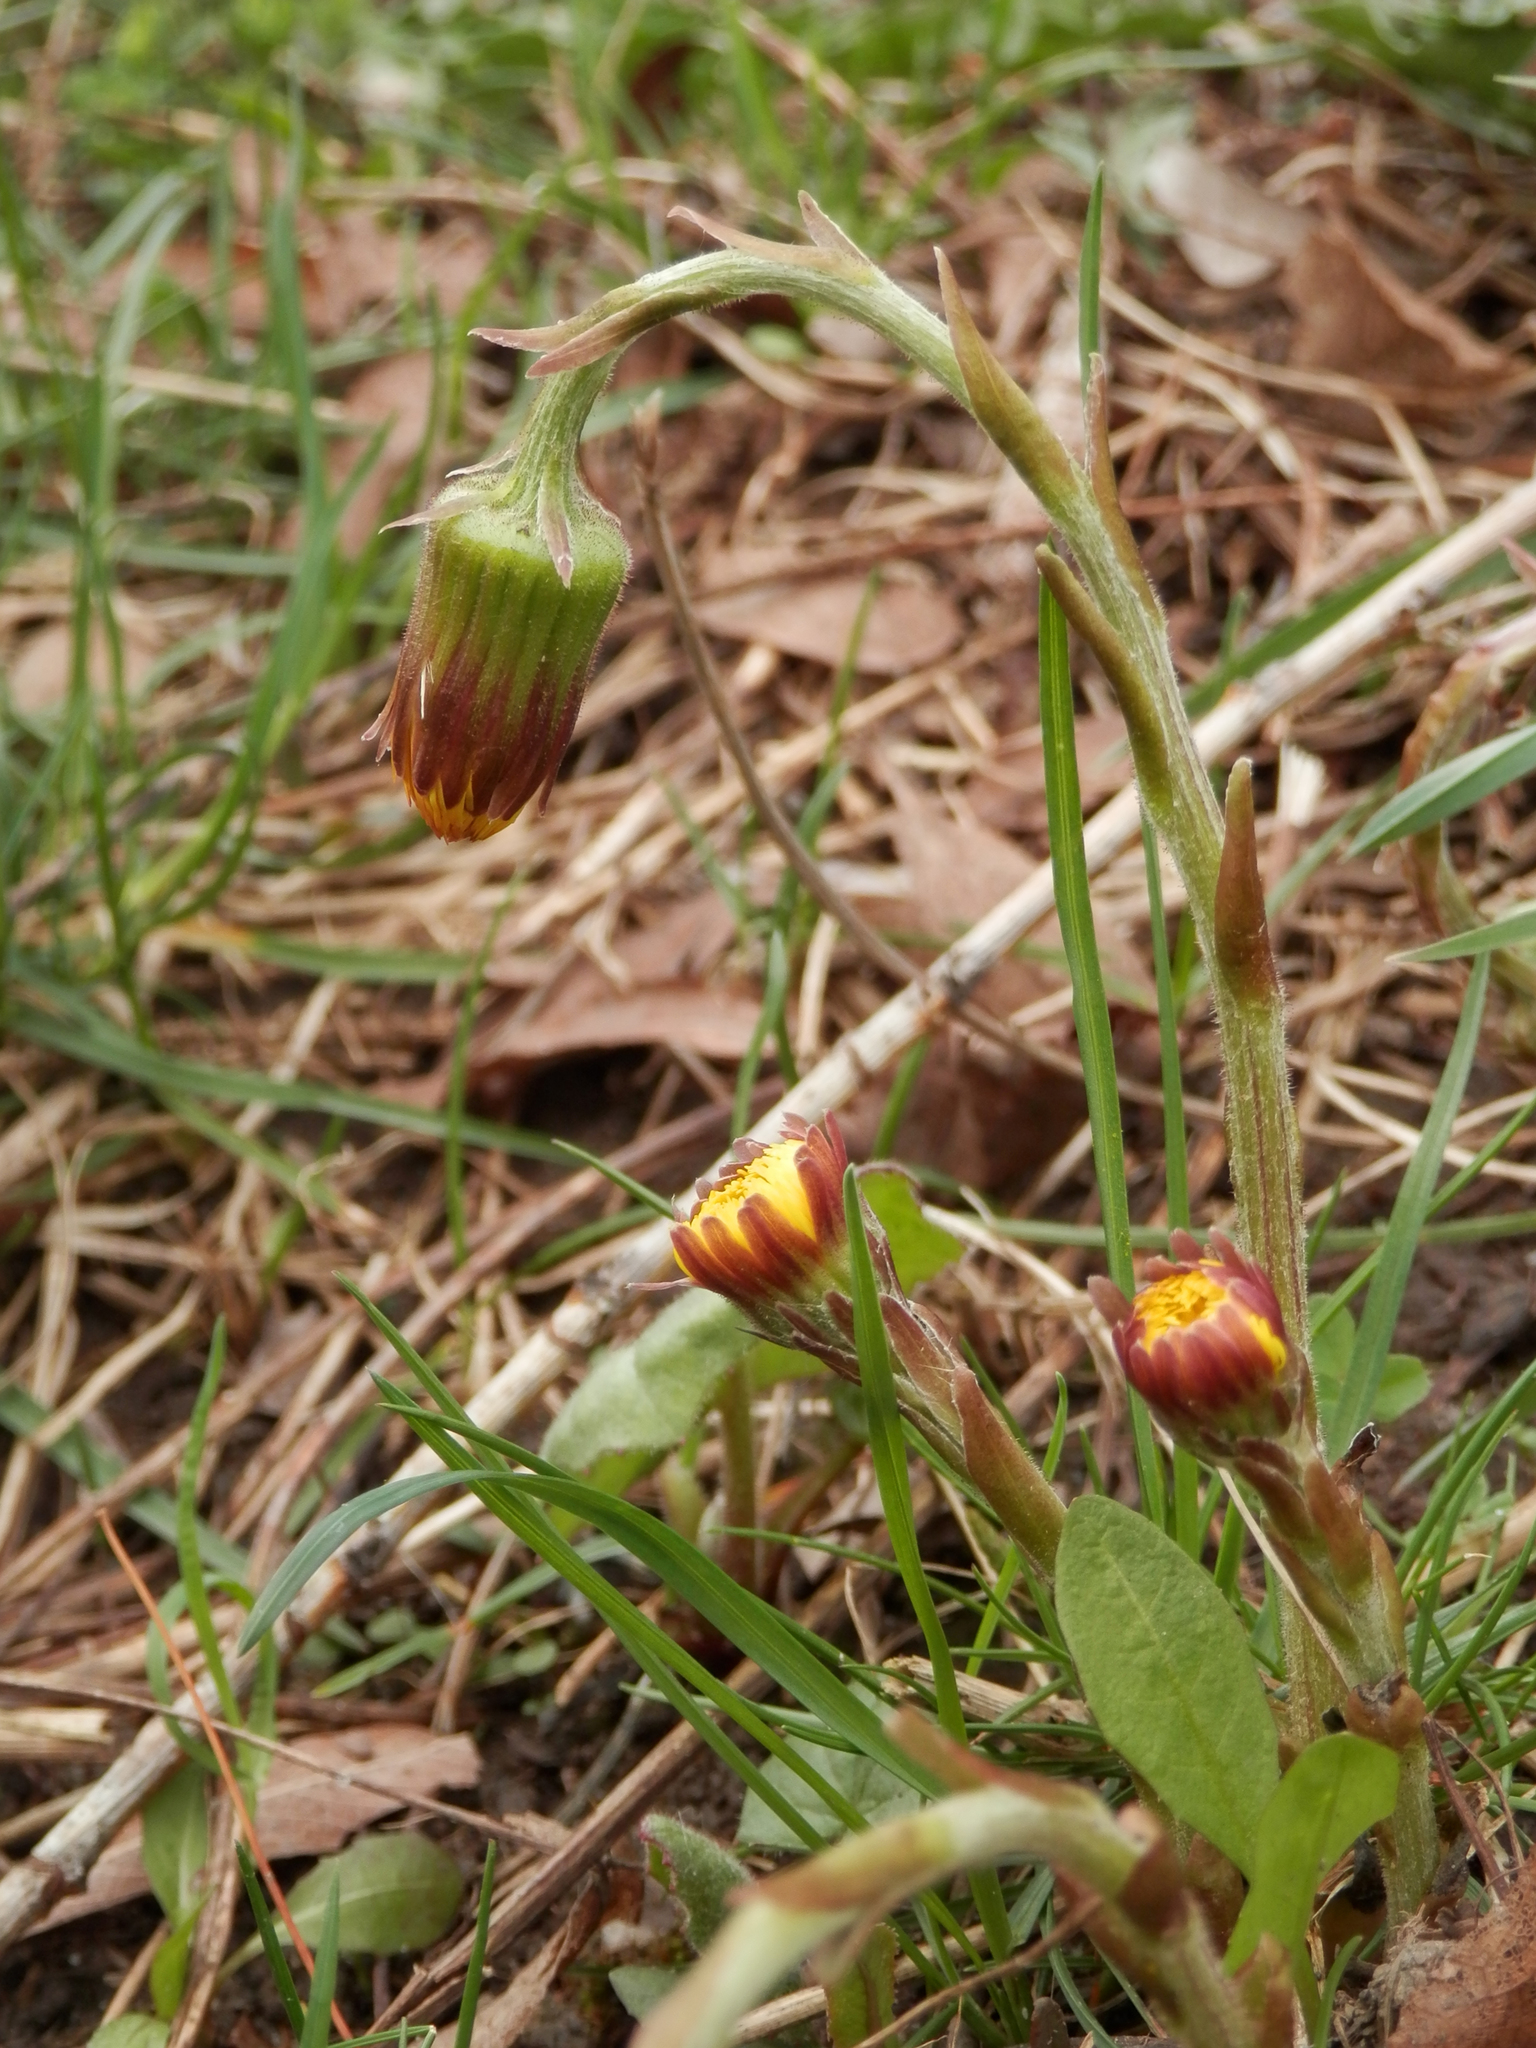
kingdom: Plantae
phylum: Tracheophyta
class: Magnoliopsida
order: Asterales
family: Asteraceae
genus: Tussilago
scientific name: Tussilago farfara
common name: Coltsfoot
